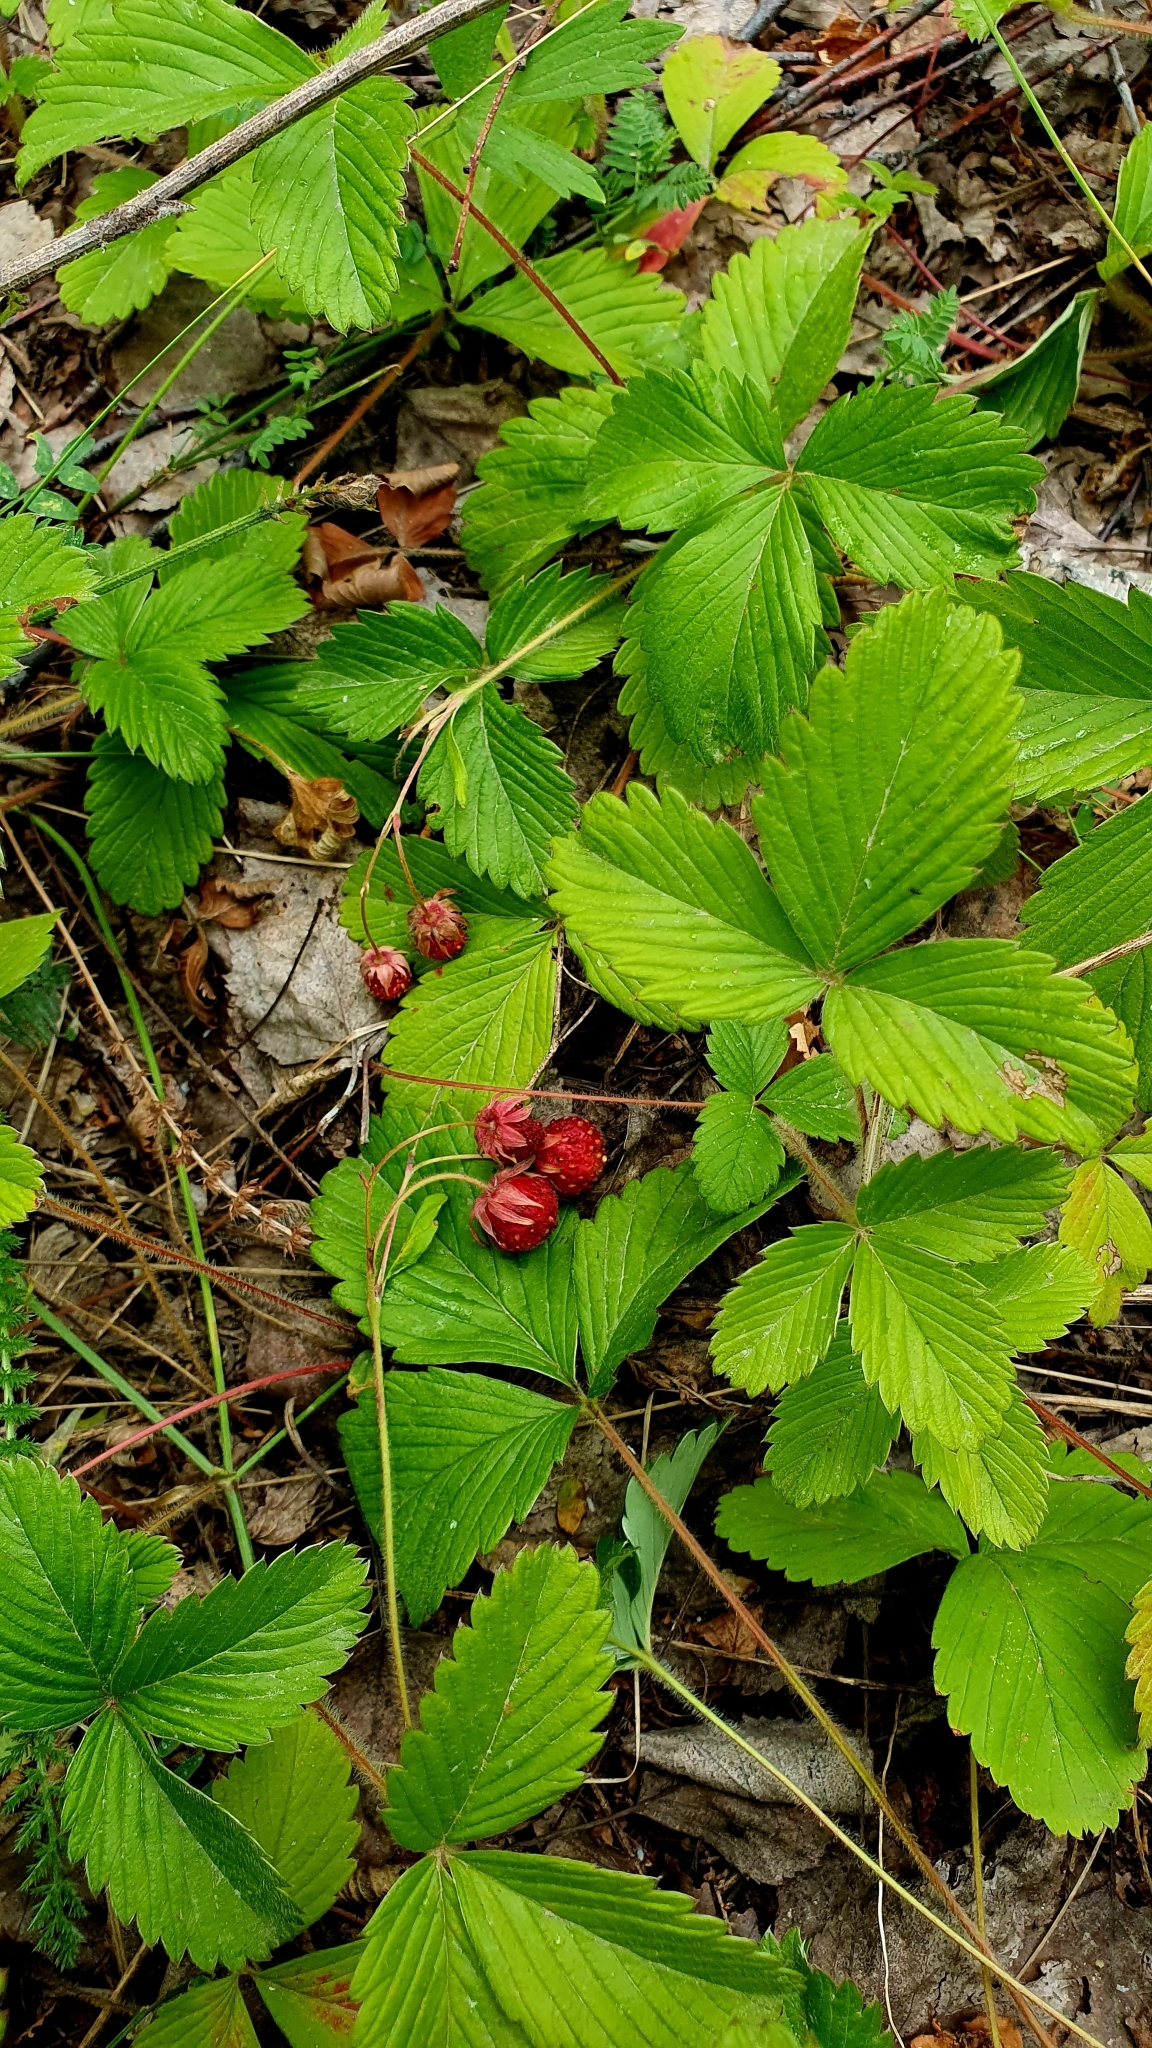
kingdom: Plantae
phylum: Tracheophyta
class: Magnoliopsida
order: Rosales
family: Rosaceae
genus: Fragaria
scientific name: Fragaria viridis
